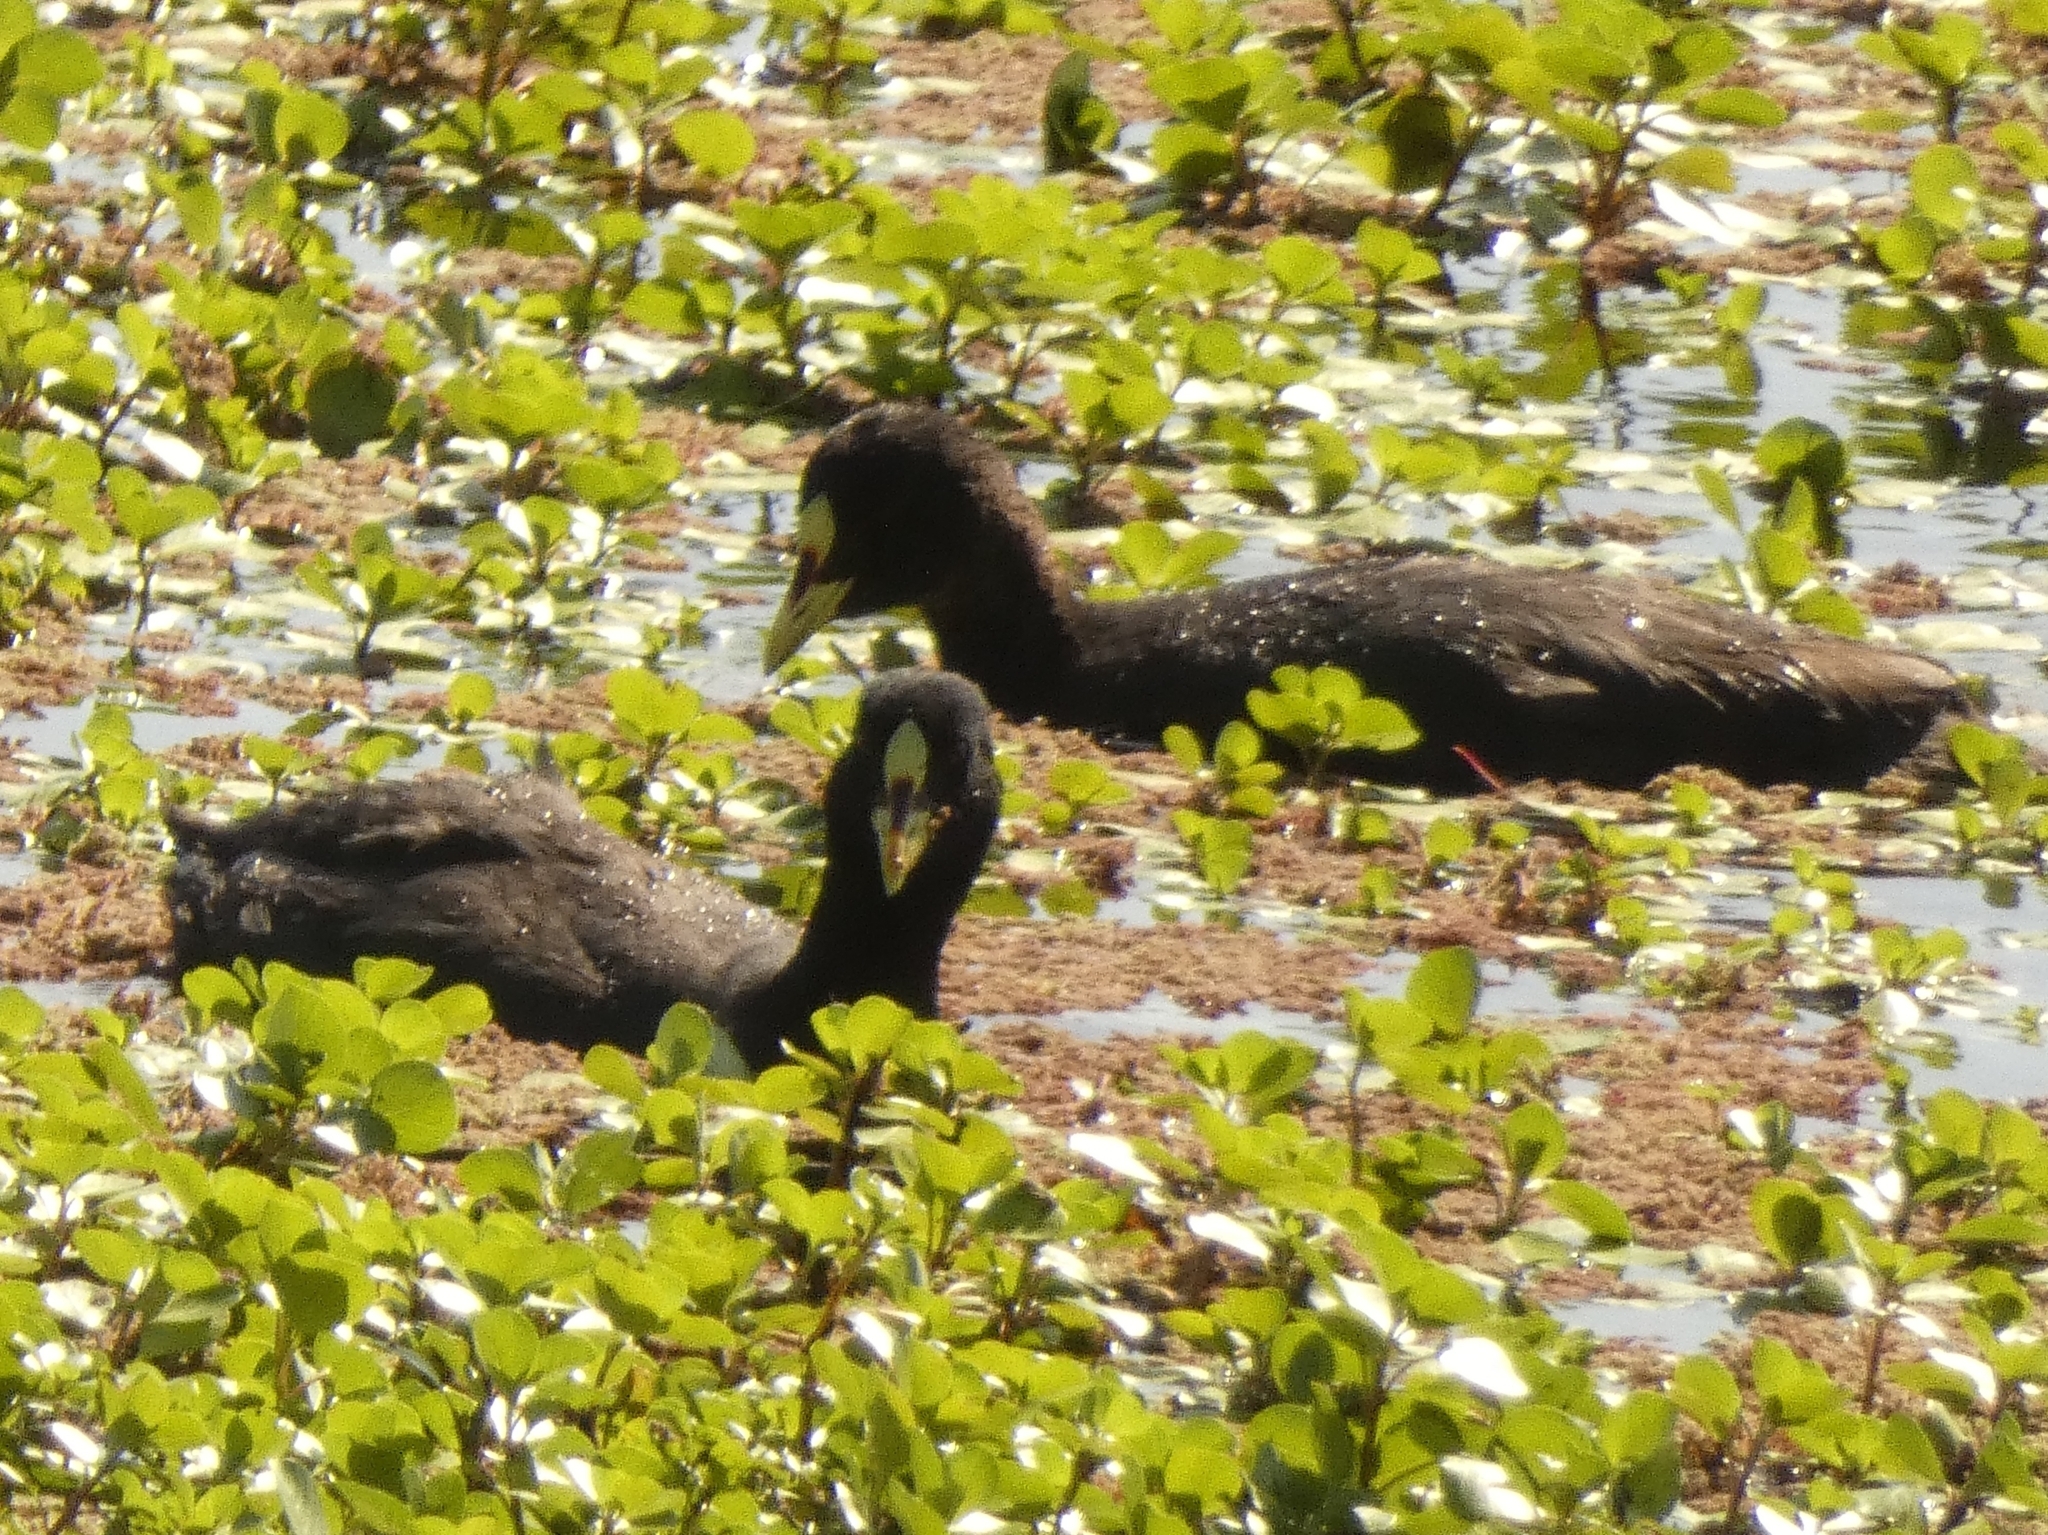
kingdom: Animalia
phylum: Chordata
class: Aves
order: Gruiformes
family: Rallidae
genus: Fulica
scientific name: Fulica armillata
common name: Red-gartered coot
